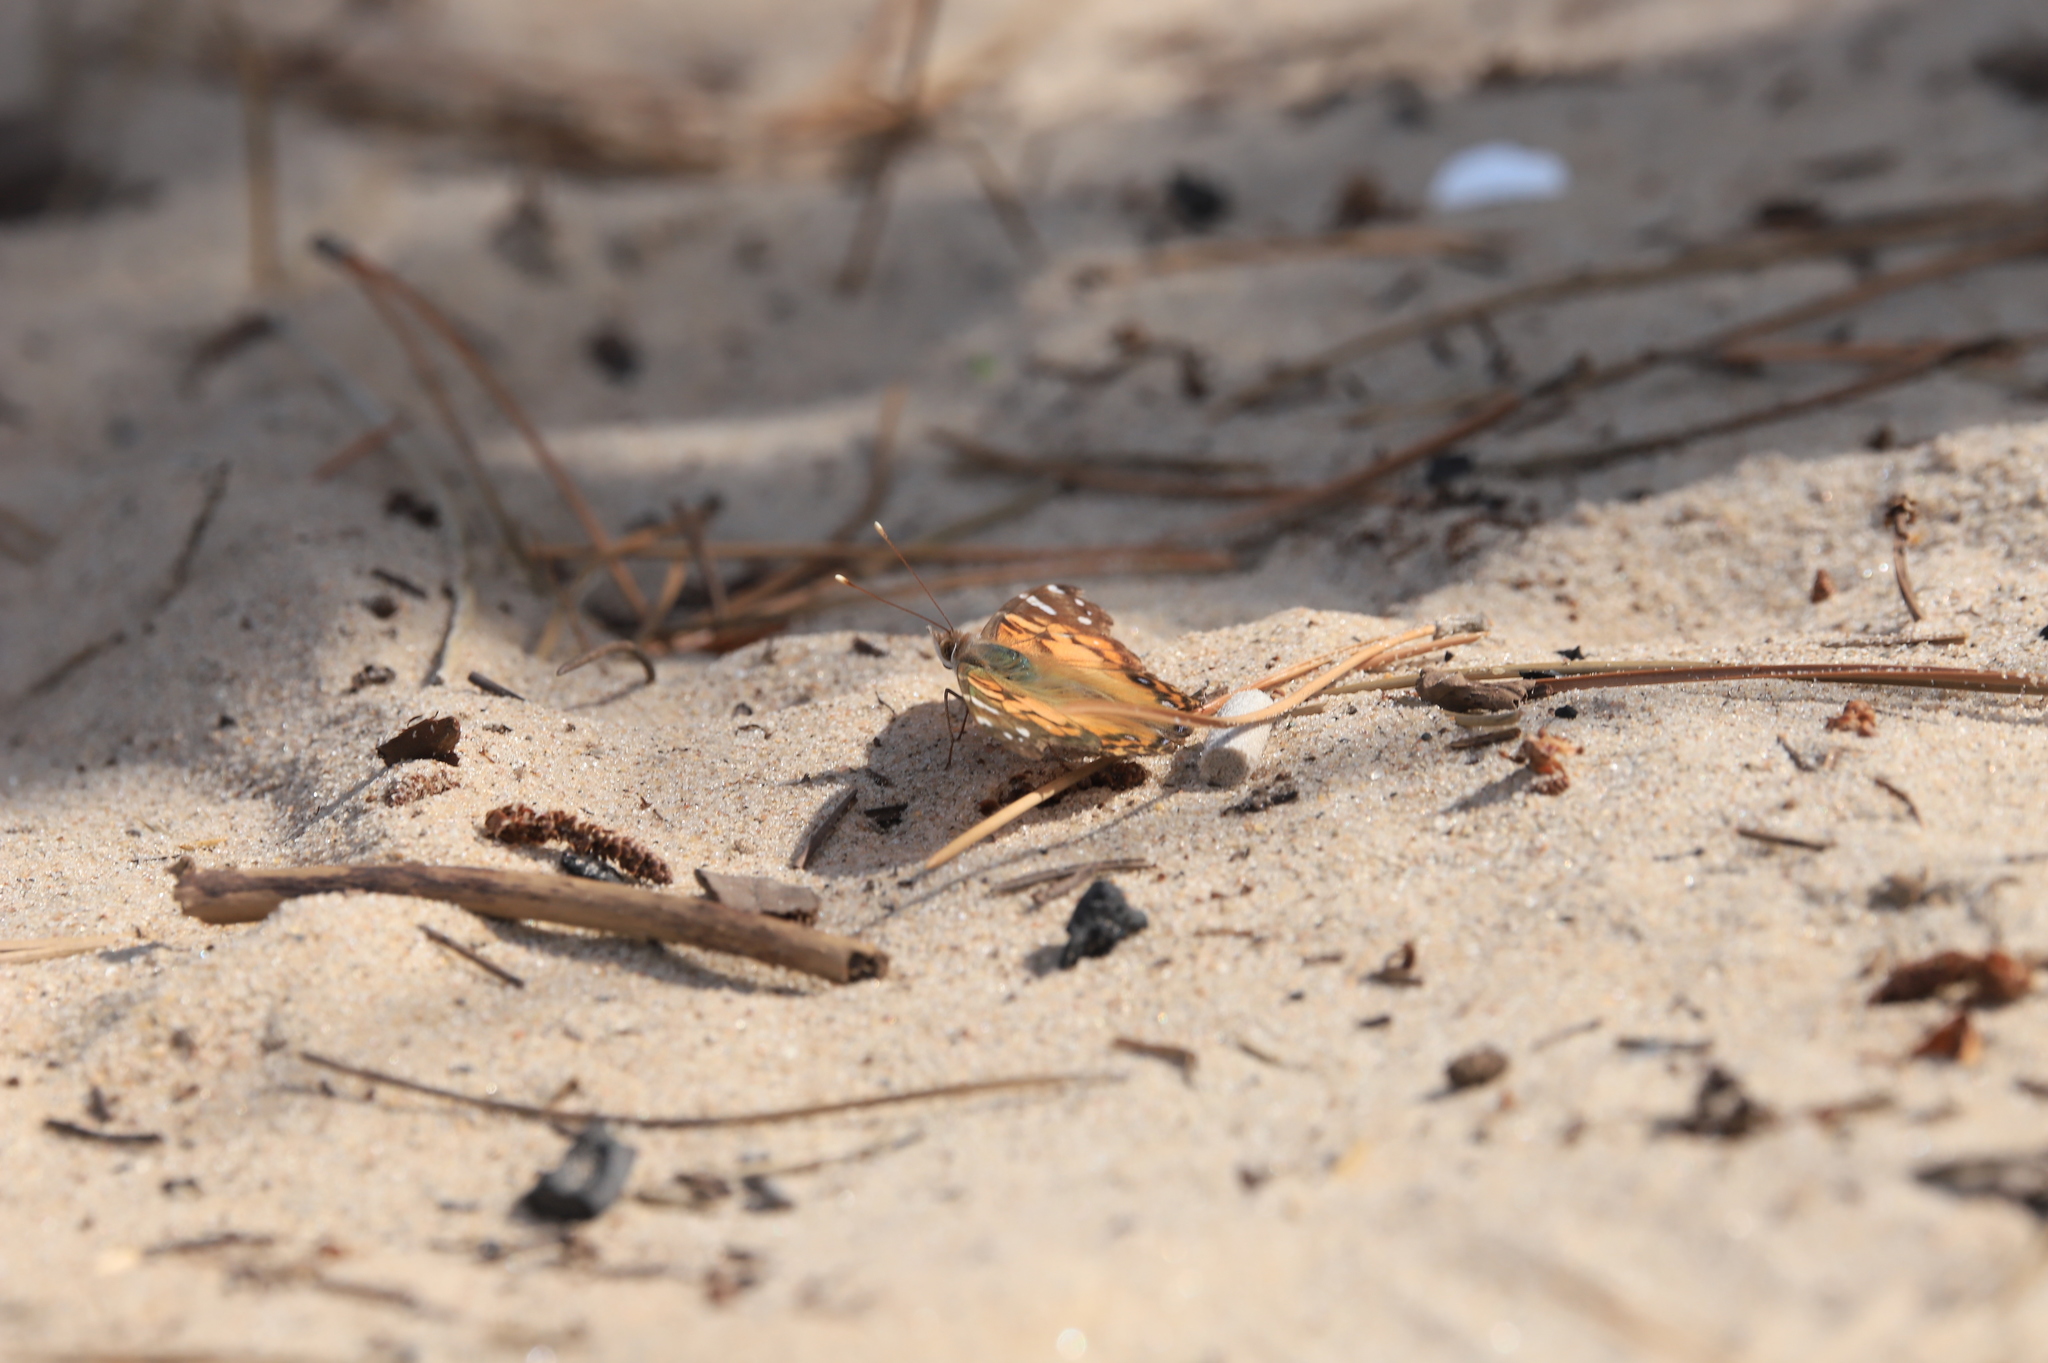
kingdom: Animalia
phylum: Arthropoda
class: Insecta
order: Lepidoptera
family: Nymphalidae
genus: Vanessa
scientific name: Vanessa virginiensis
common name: American lady
